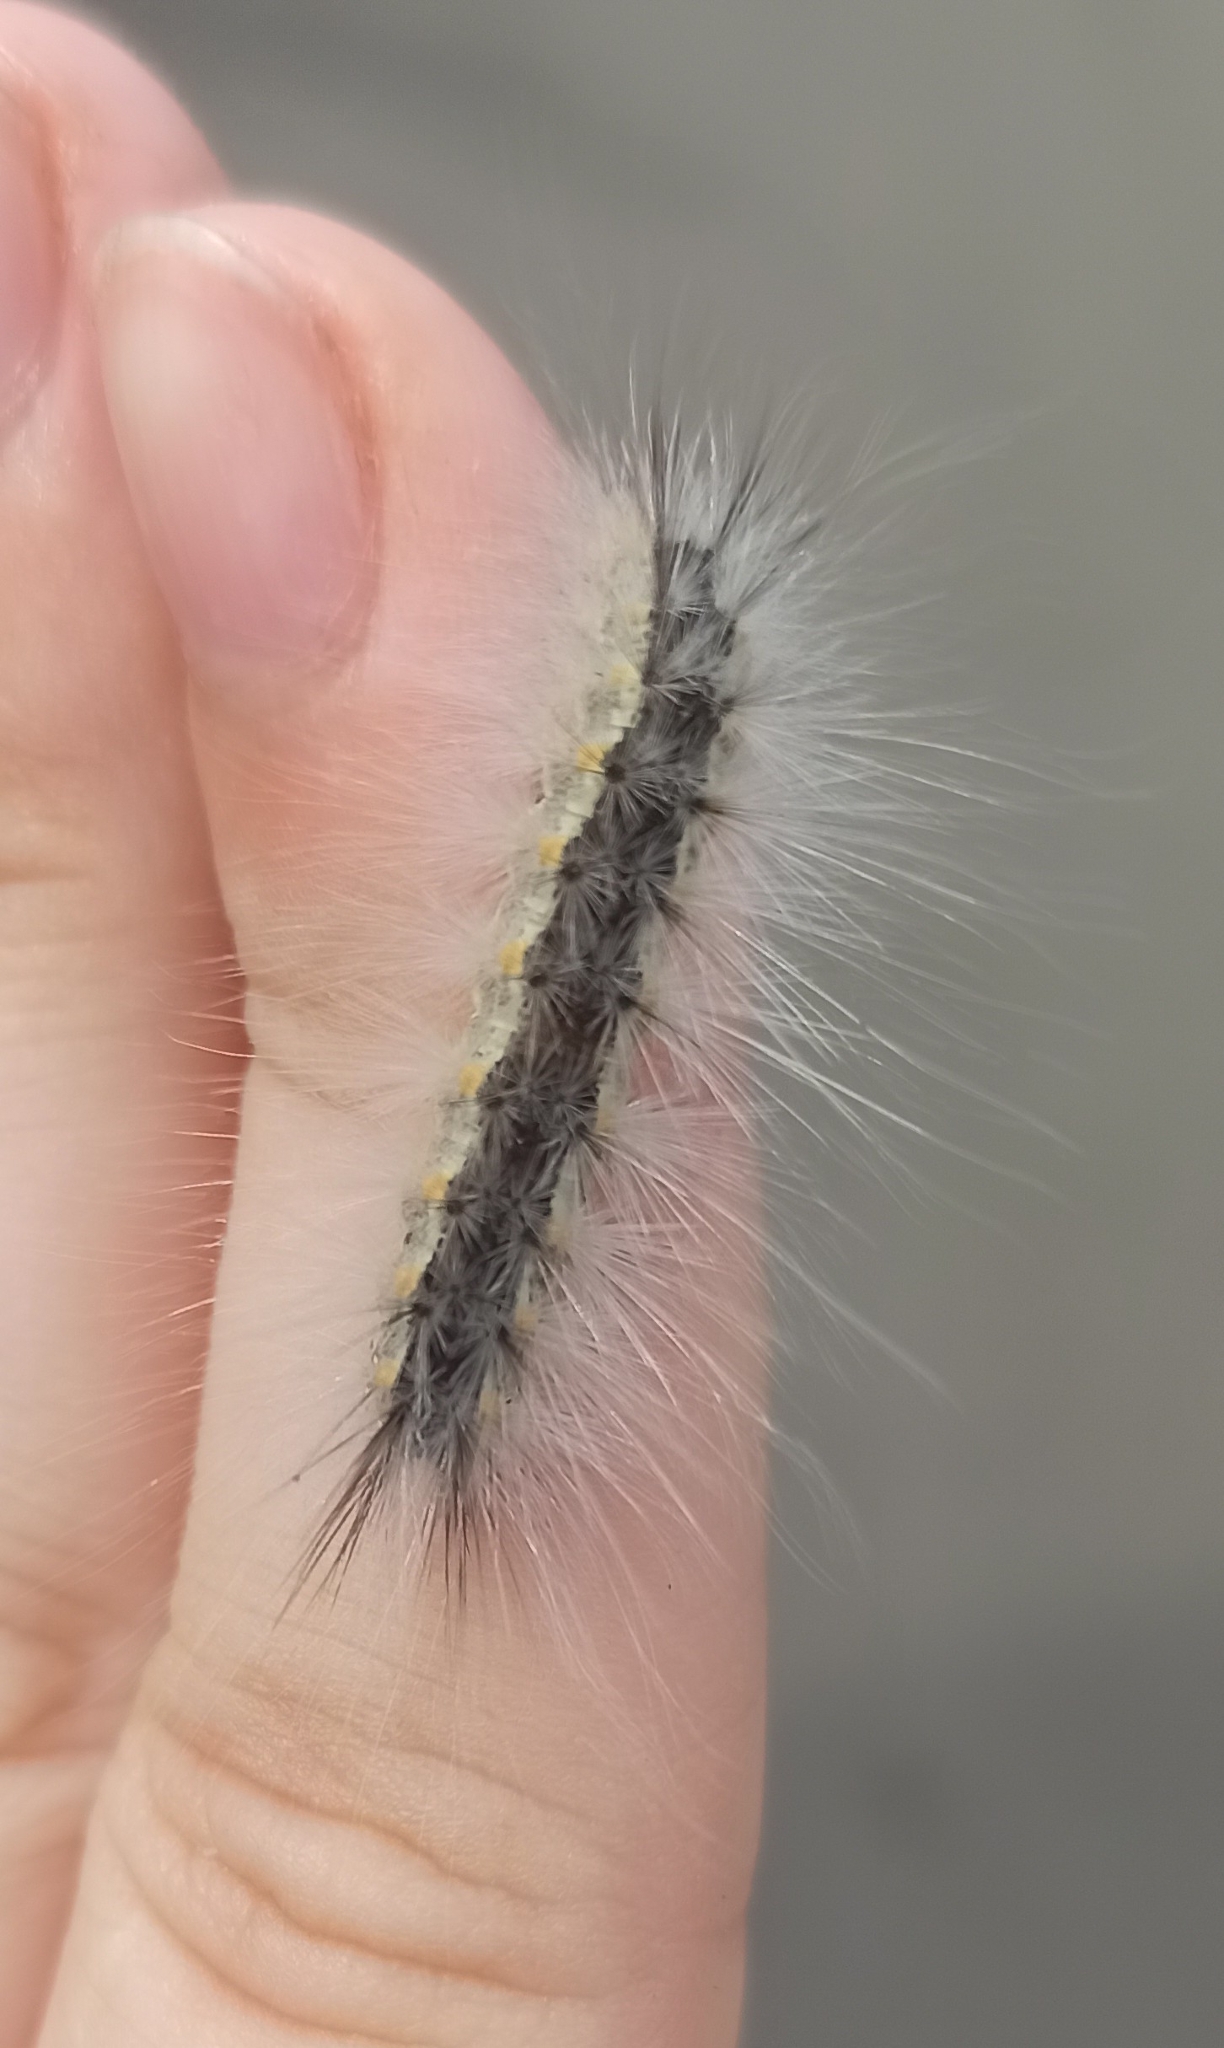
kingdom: Animalia
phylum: Arthropoda
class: Insecta
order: Lepidoptera
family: Erebidae
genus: Hyphantria
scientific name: Hyphantria cunea
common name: American white moth
